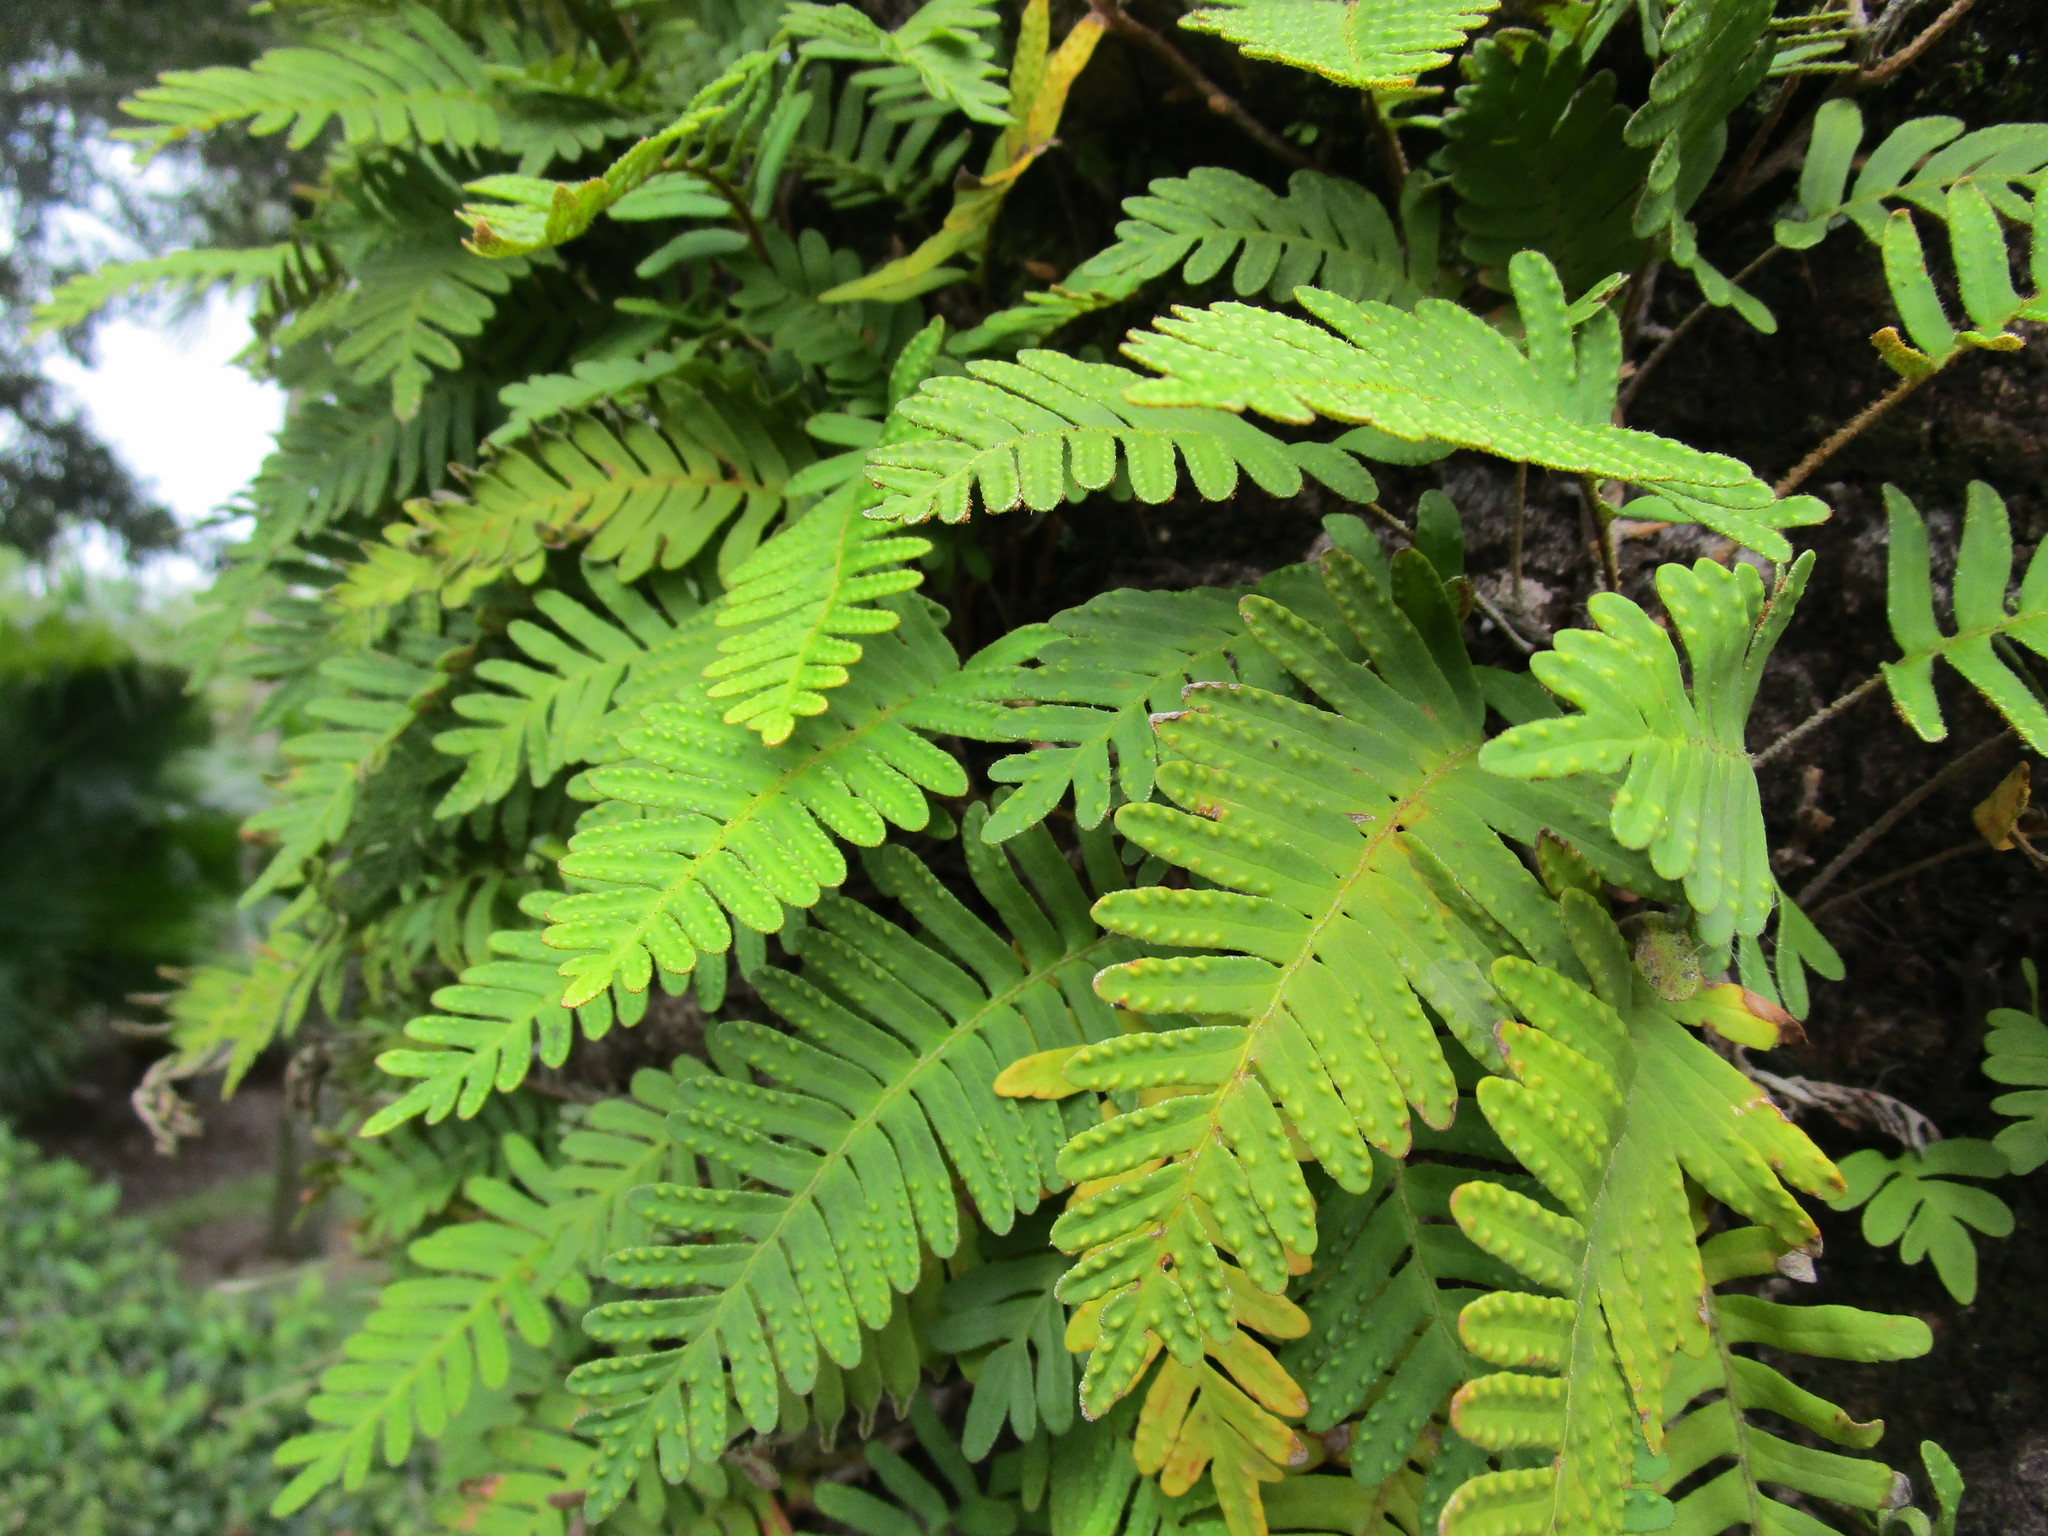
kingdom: Plantae
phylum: Tracheophyta
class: Polypodiopsida
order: Polypodiales
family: Polypodiaceae
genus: Pleopeltis
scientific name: Pleopeltis michauxiana
